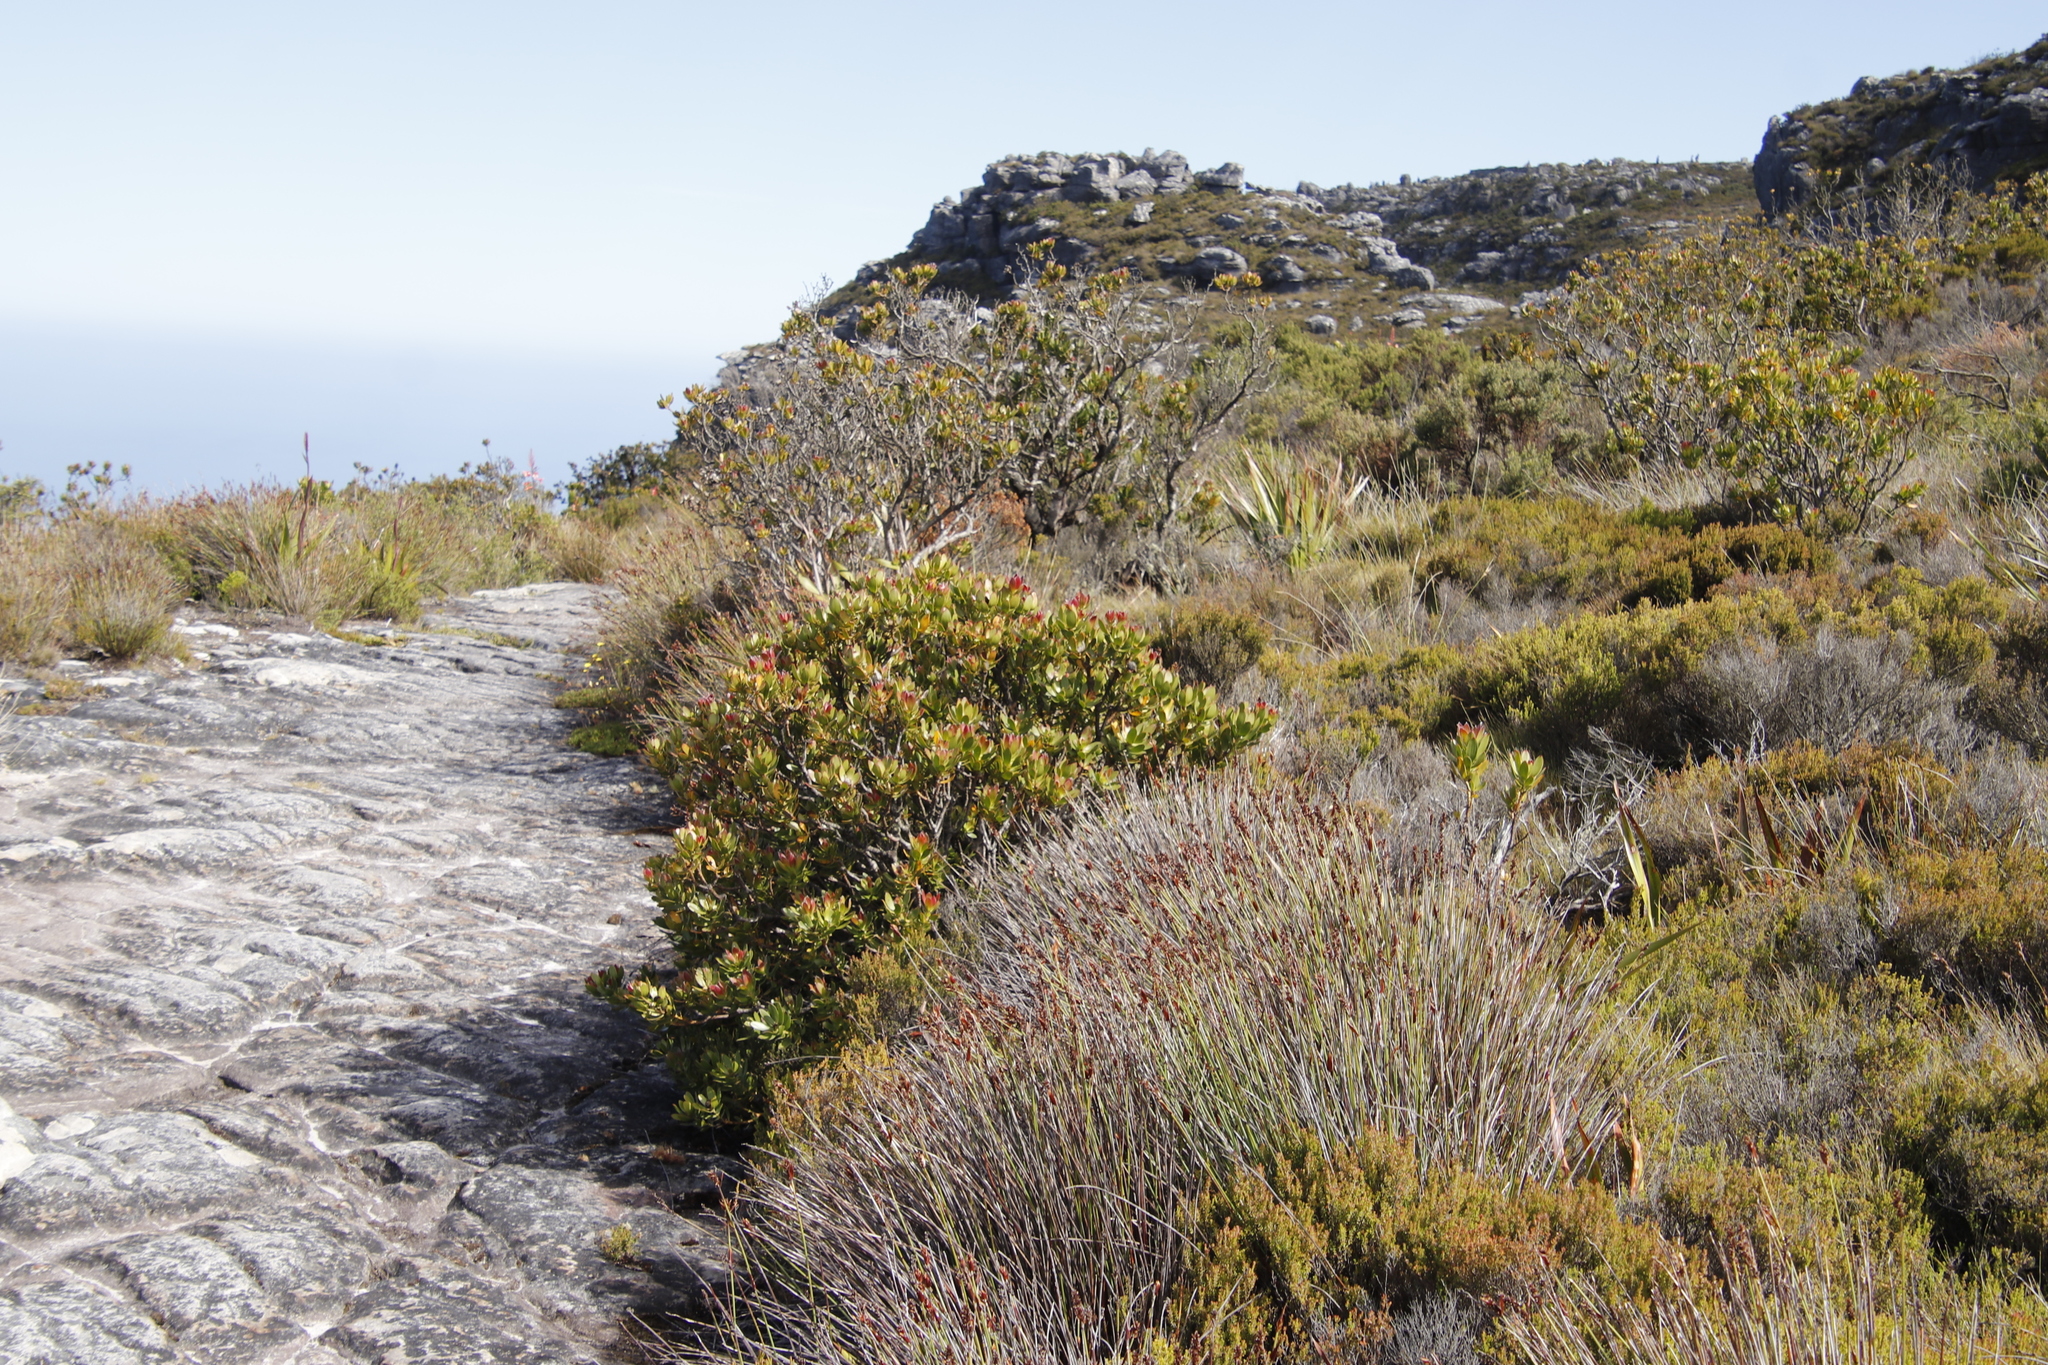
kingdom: Plantae
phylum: Tracheophyta
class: Magnoliopsida
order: Proteales
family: Proteaceae
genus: Leucadendron
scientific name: Leucadendron strobilinum
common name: Mountain rose
